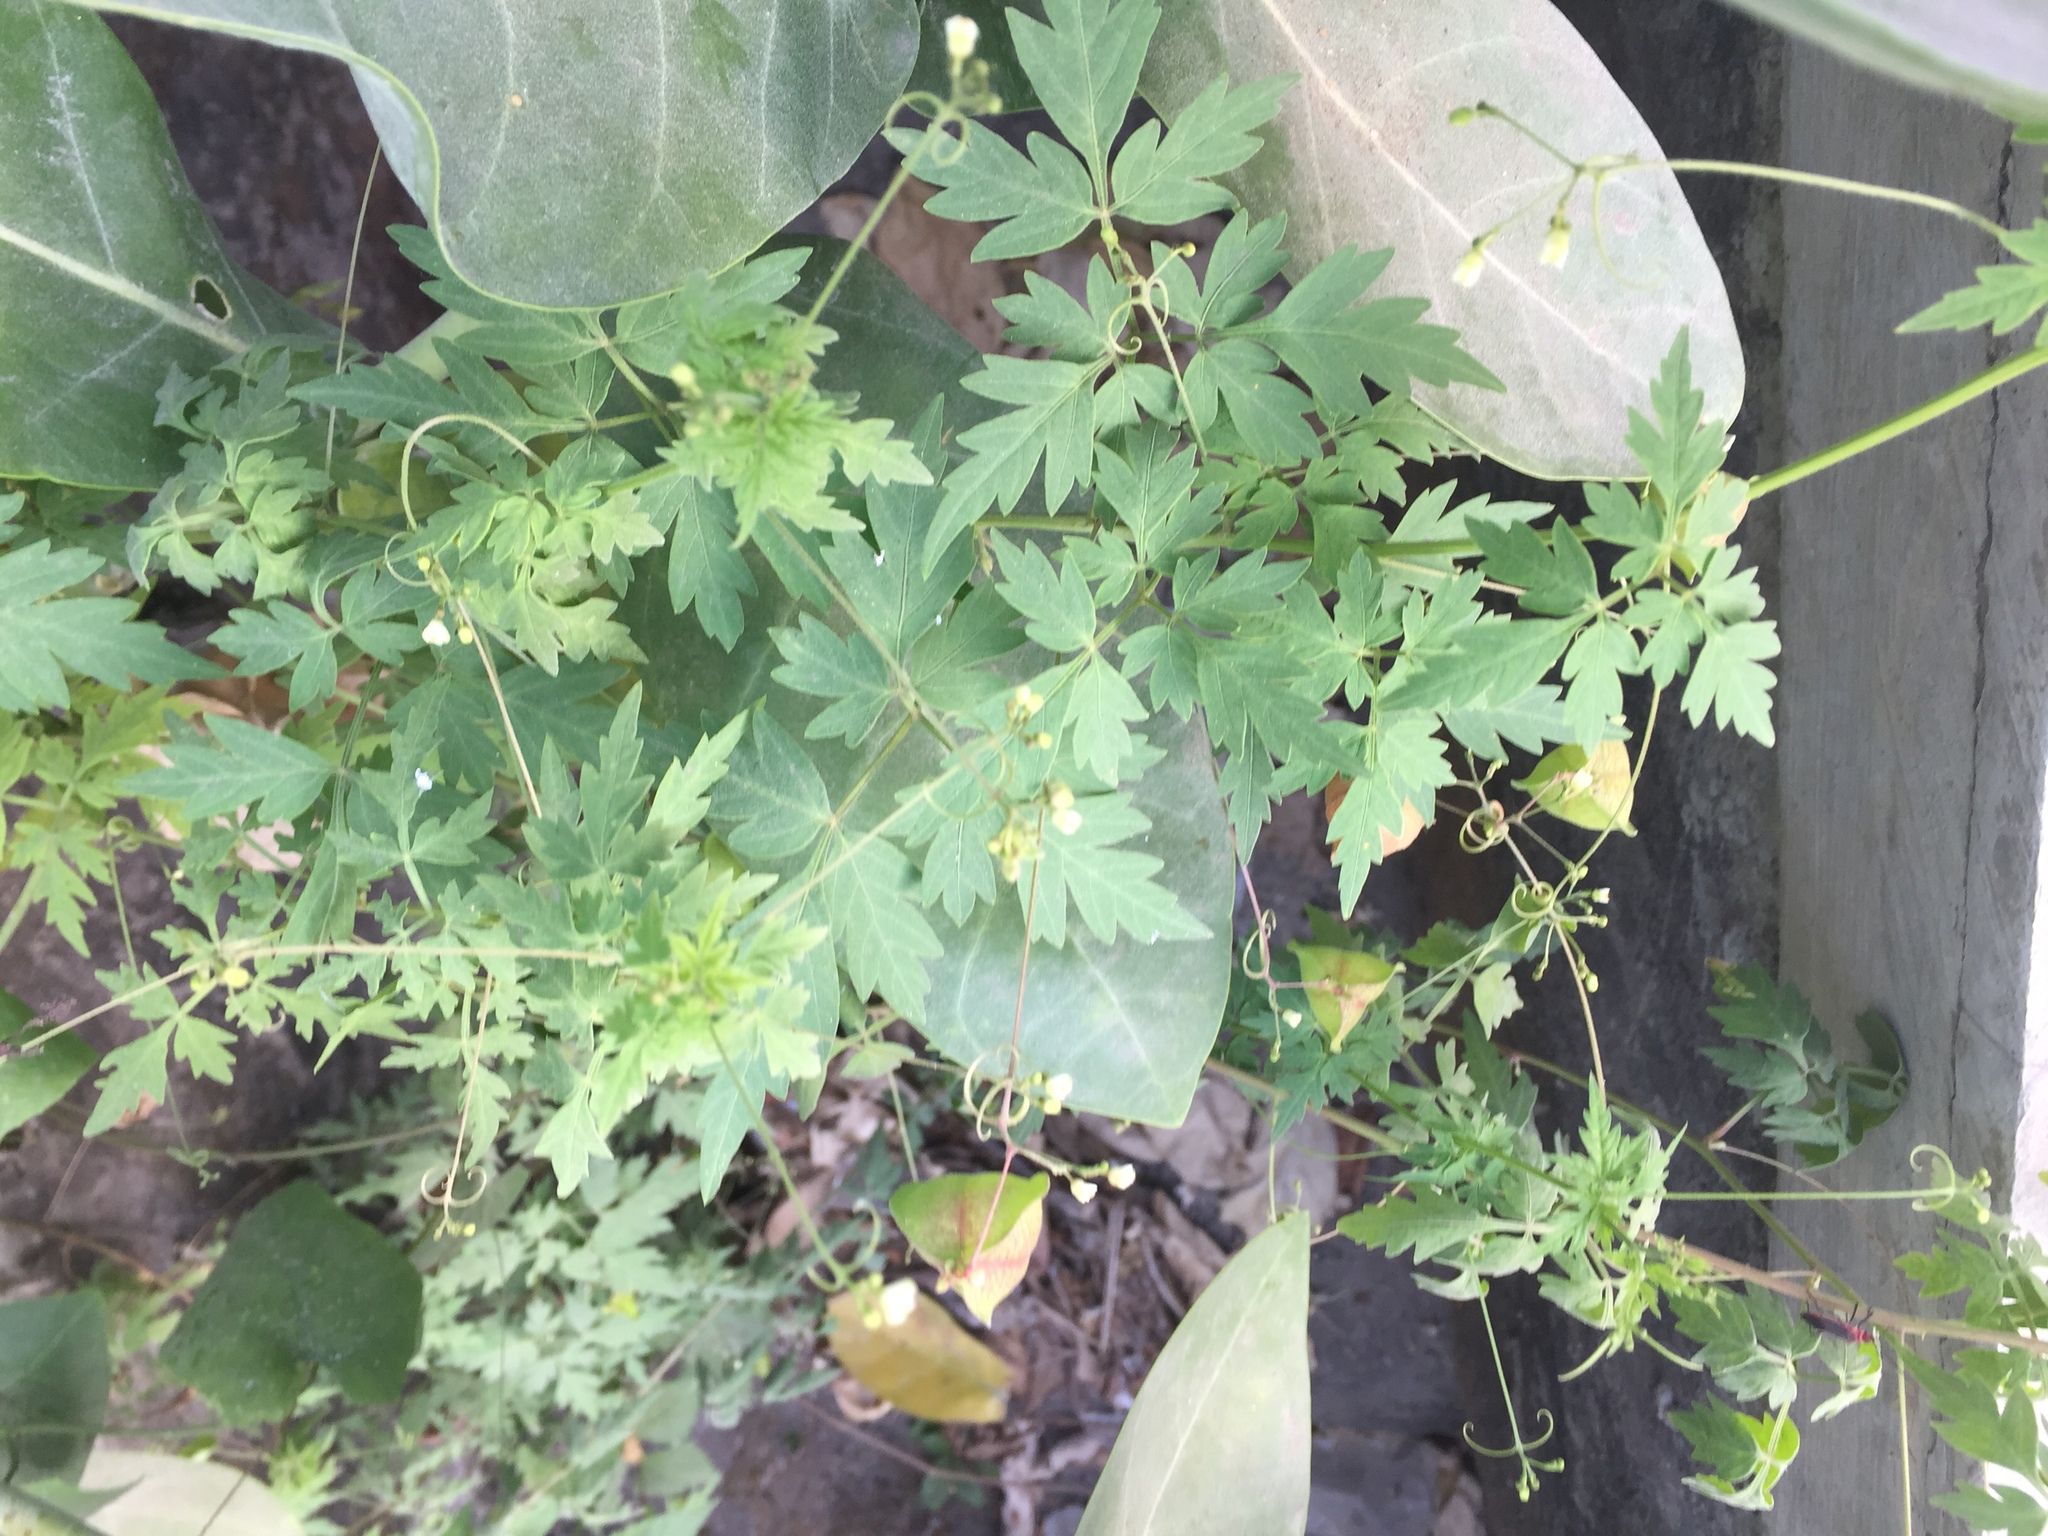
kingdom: Plantae
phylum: Tracheophyta
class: Magnoliopsida
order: Sapindales
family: Sapindaceae
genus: Cardiospermum
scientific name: Cardiospermum halicacabum
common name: Balloon vine
